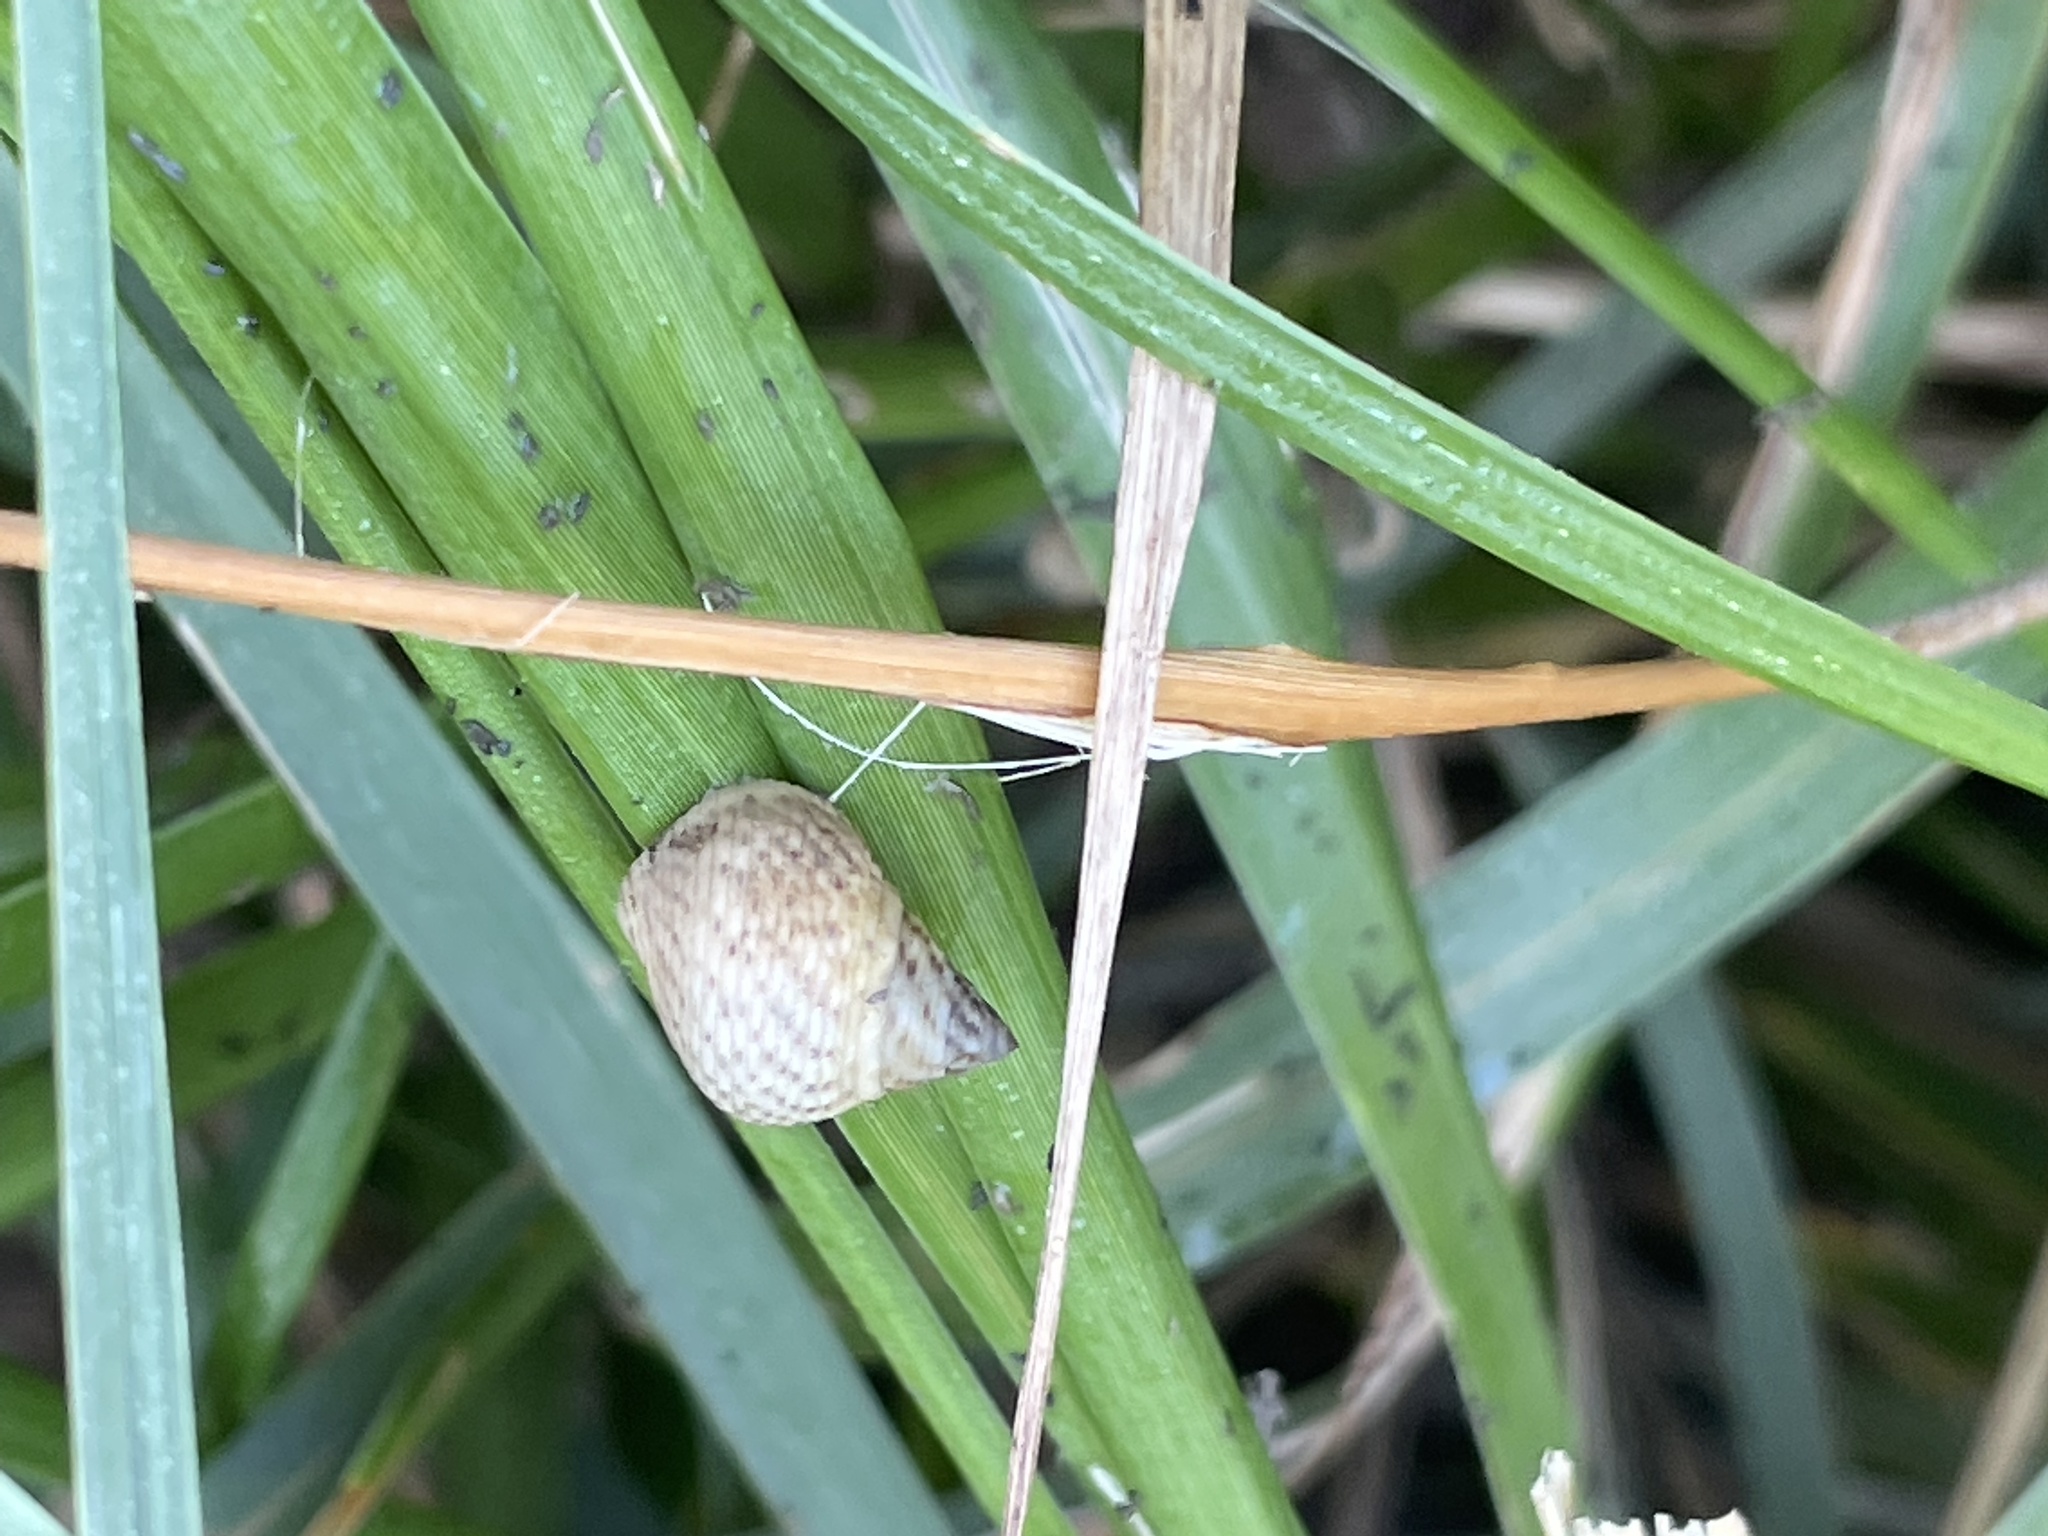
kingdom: Animalia
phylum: Mollusca
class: Gastropoda
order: Littorinimorpha
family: Littorinidae
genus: Littoraria
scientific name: Littoraria irrorata
